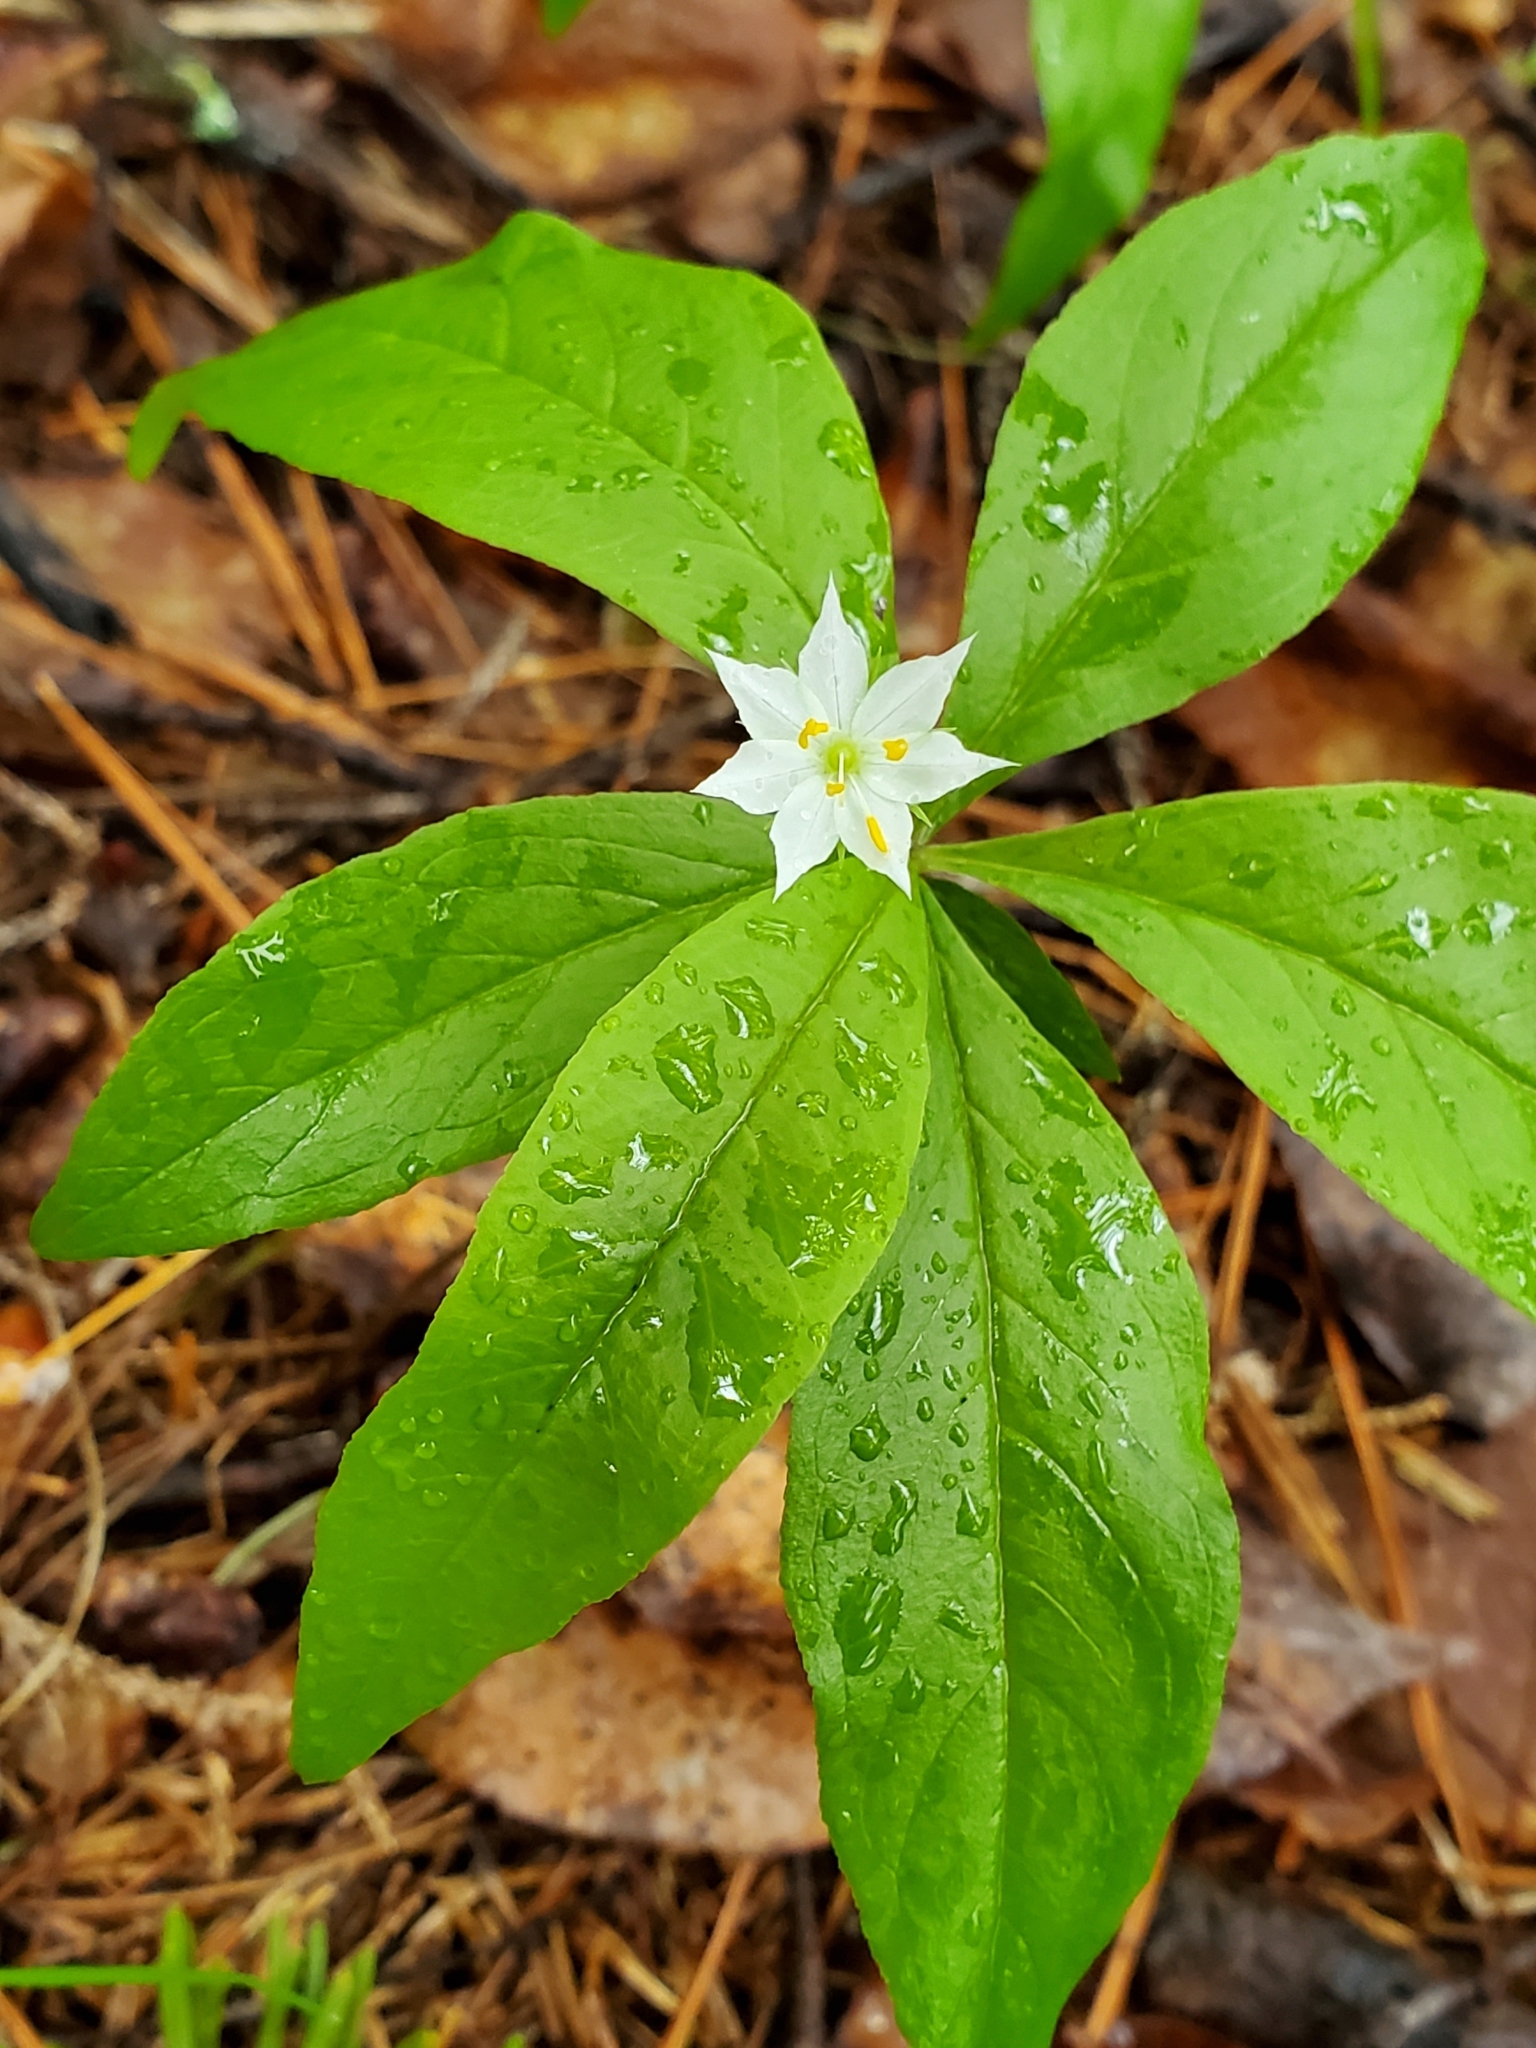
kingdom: Plantae
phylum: Tracheophyta
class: Magnoliopsida
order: Ericales
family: Primulaceae
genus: Lysimachia
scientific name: Lysimachia borealis
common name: American starflower
